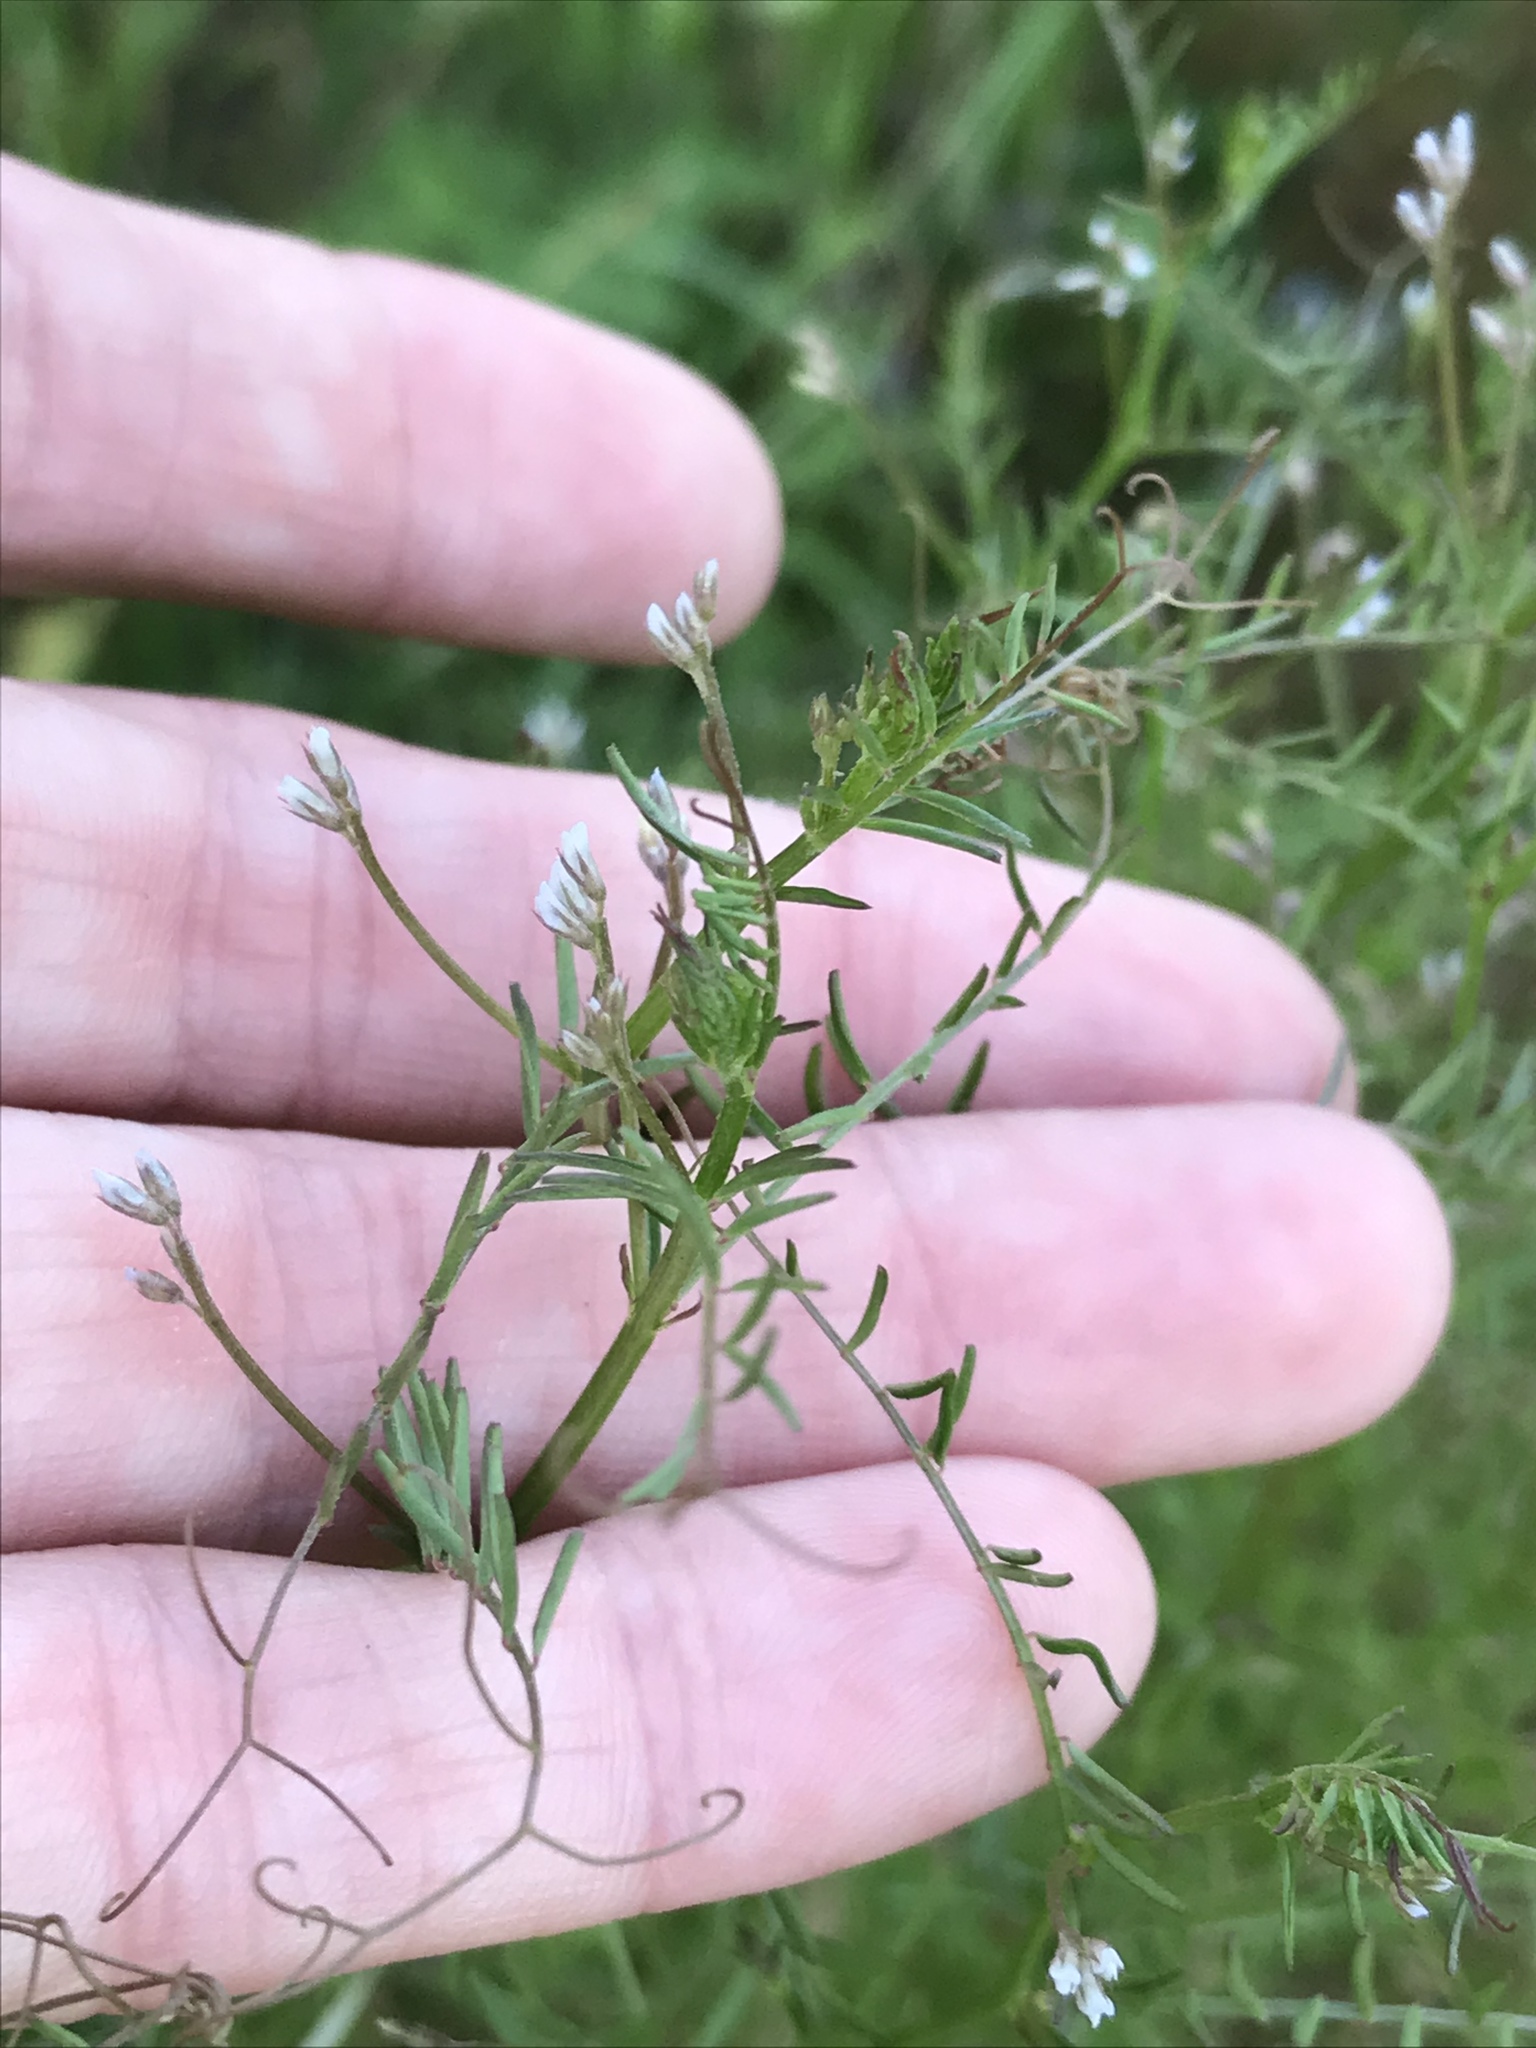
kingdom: Plantae
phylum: Tracheophyta
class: Magnoliopsida
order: Fabales
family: Fabaceae
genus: Vicia
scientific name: Vicia hirsuta
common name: Tiny vetch
